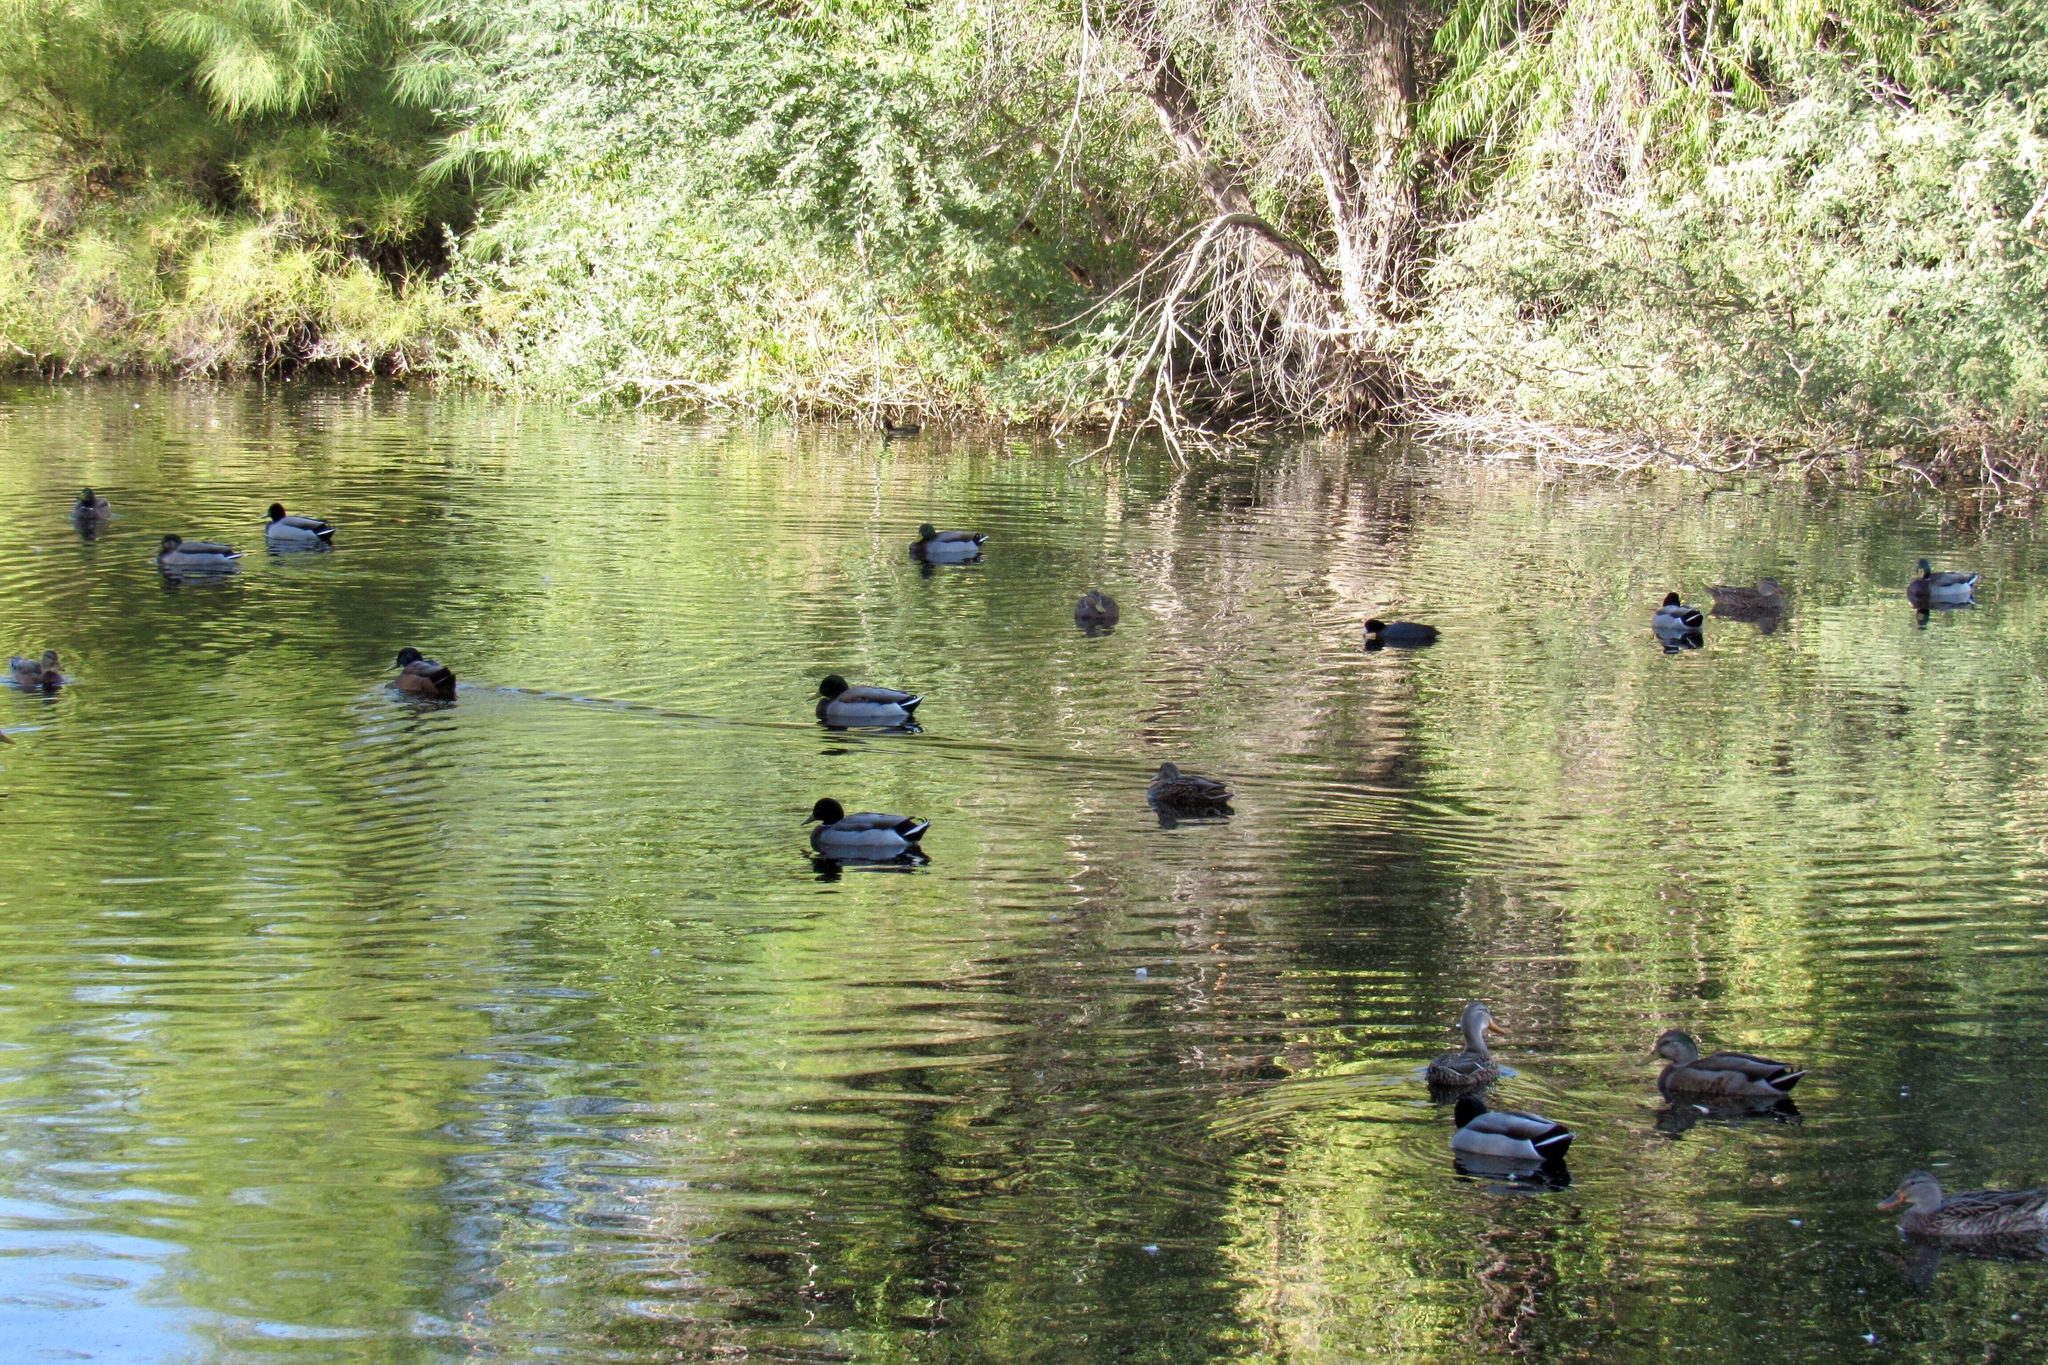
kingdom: Animalia
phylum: Chordata
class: Aves
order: Anseriformes
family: Anatidae
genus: Anas
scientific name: Anas platyrhynchos
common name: Mallard
